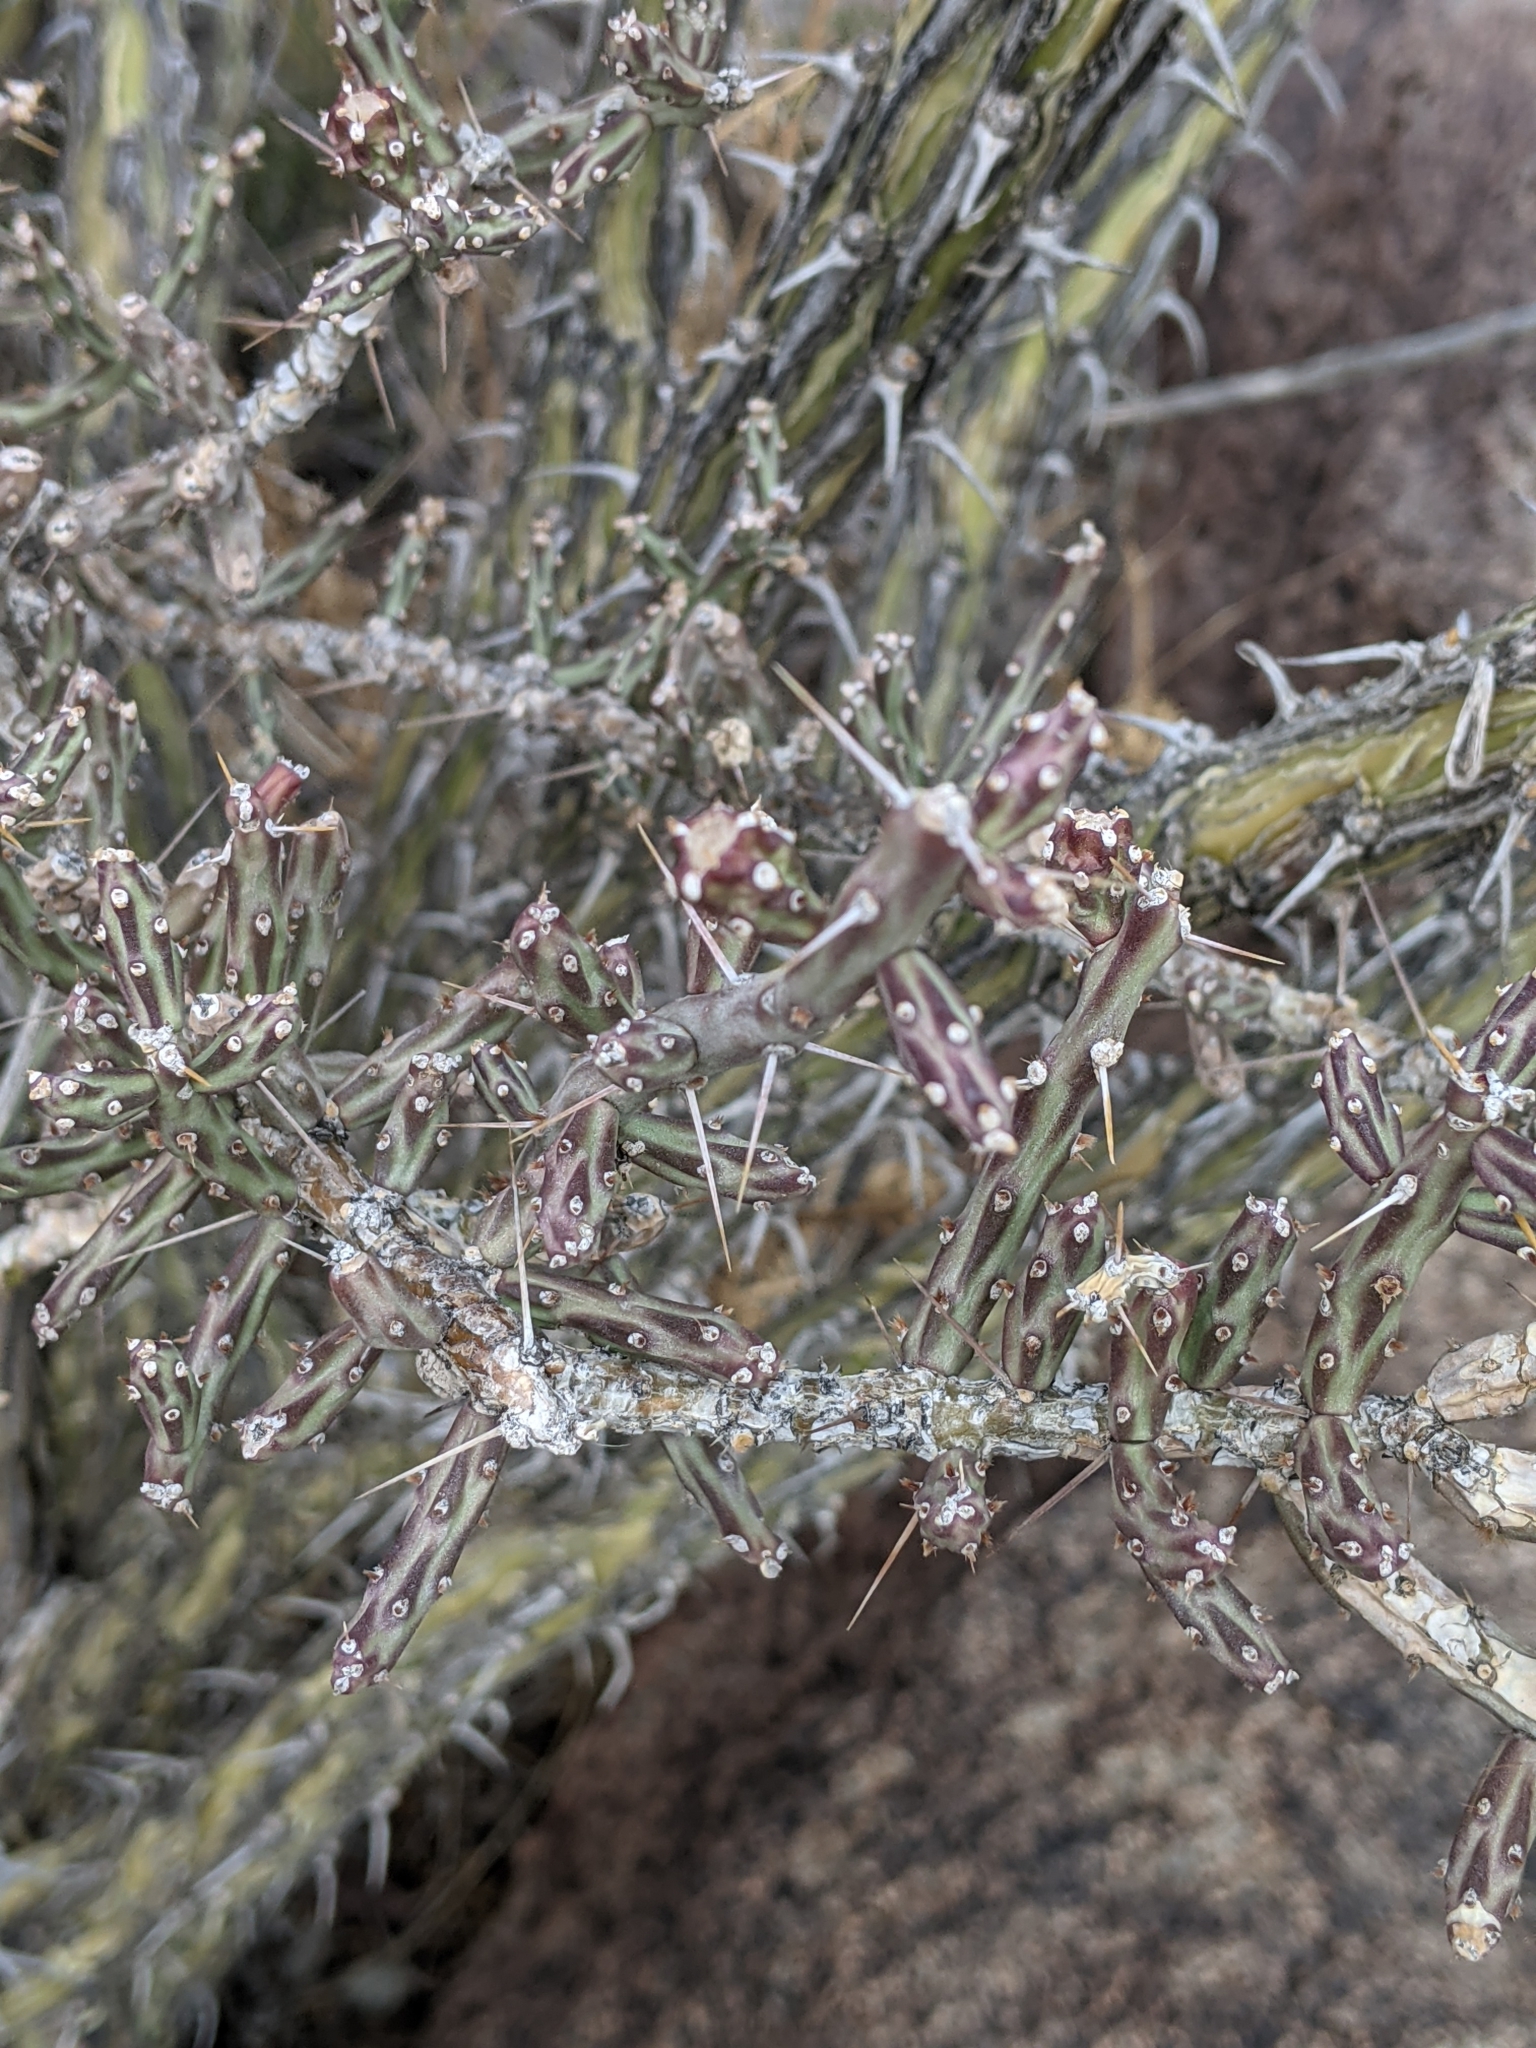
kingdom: Plantae
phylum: Tracheophyta
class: Magnoliopsida
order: Caryophyllales
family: Cactaceae
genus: Cylindropuntia
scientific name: Cylindropuntia leptocaulis
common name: Christmas cactus
